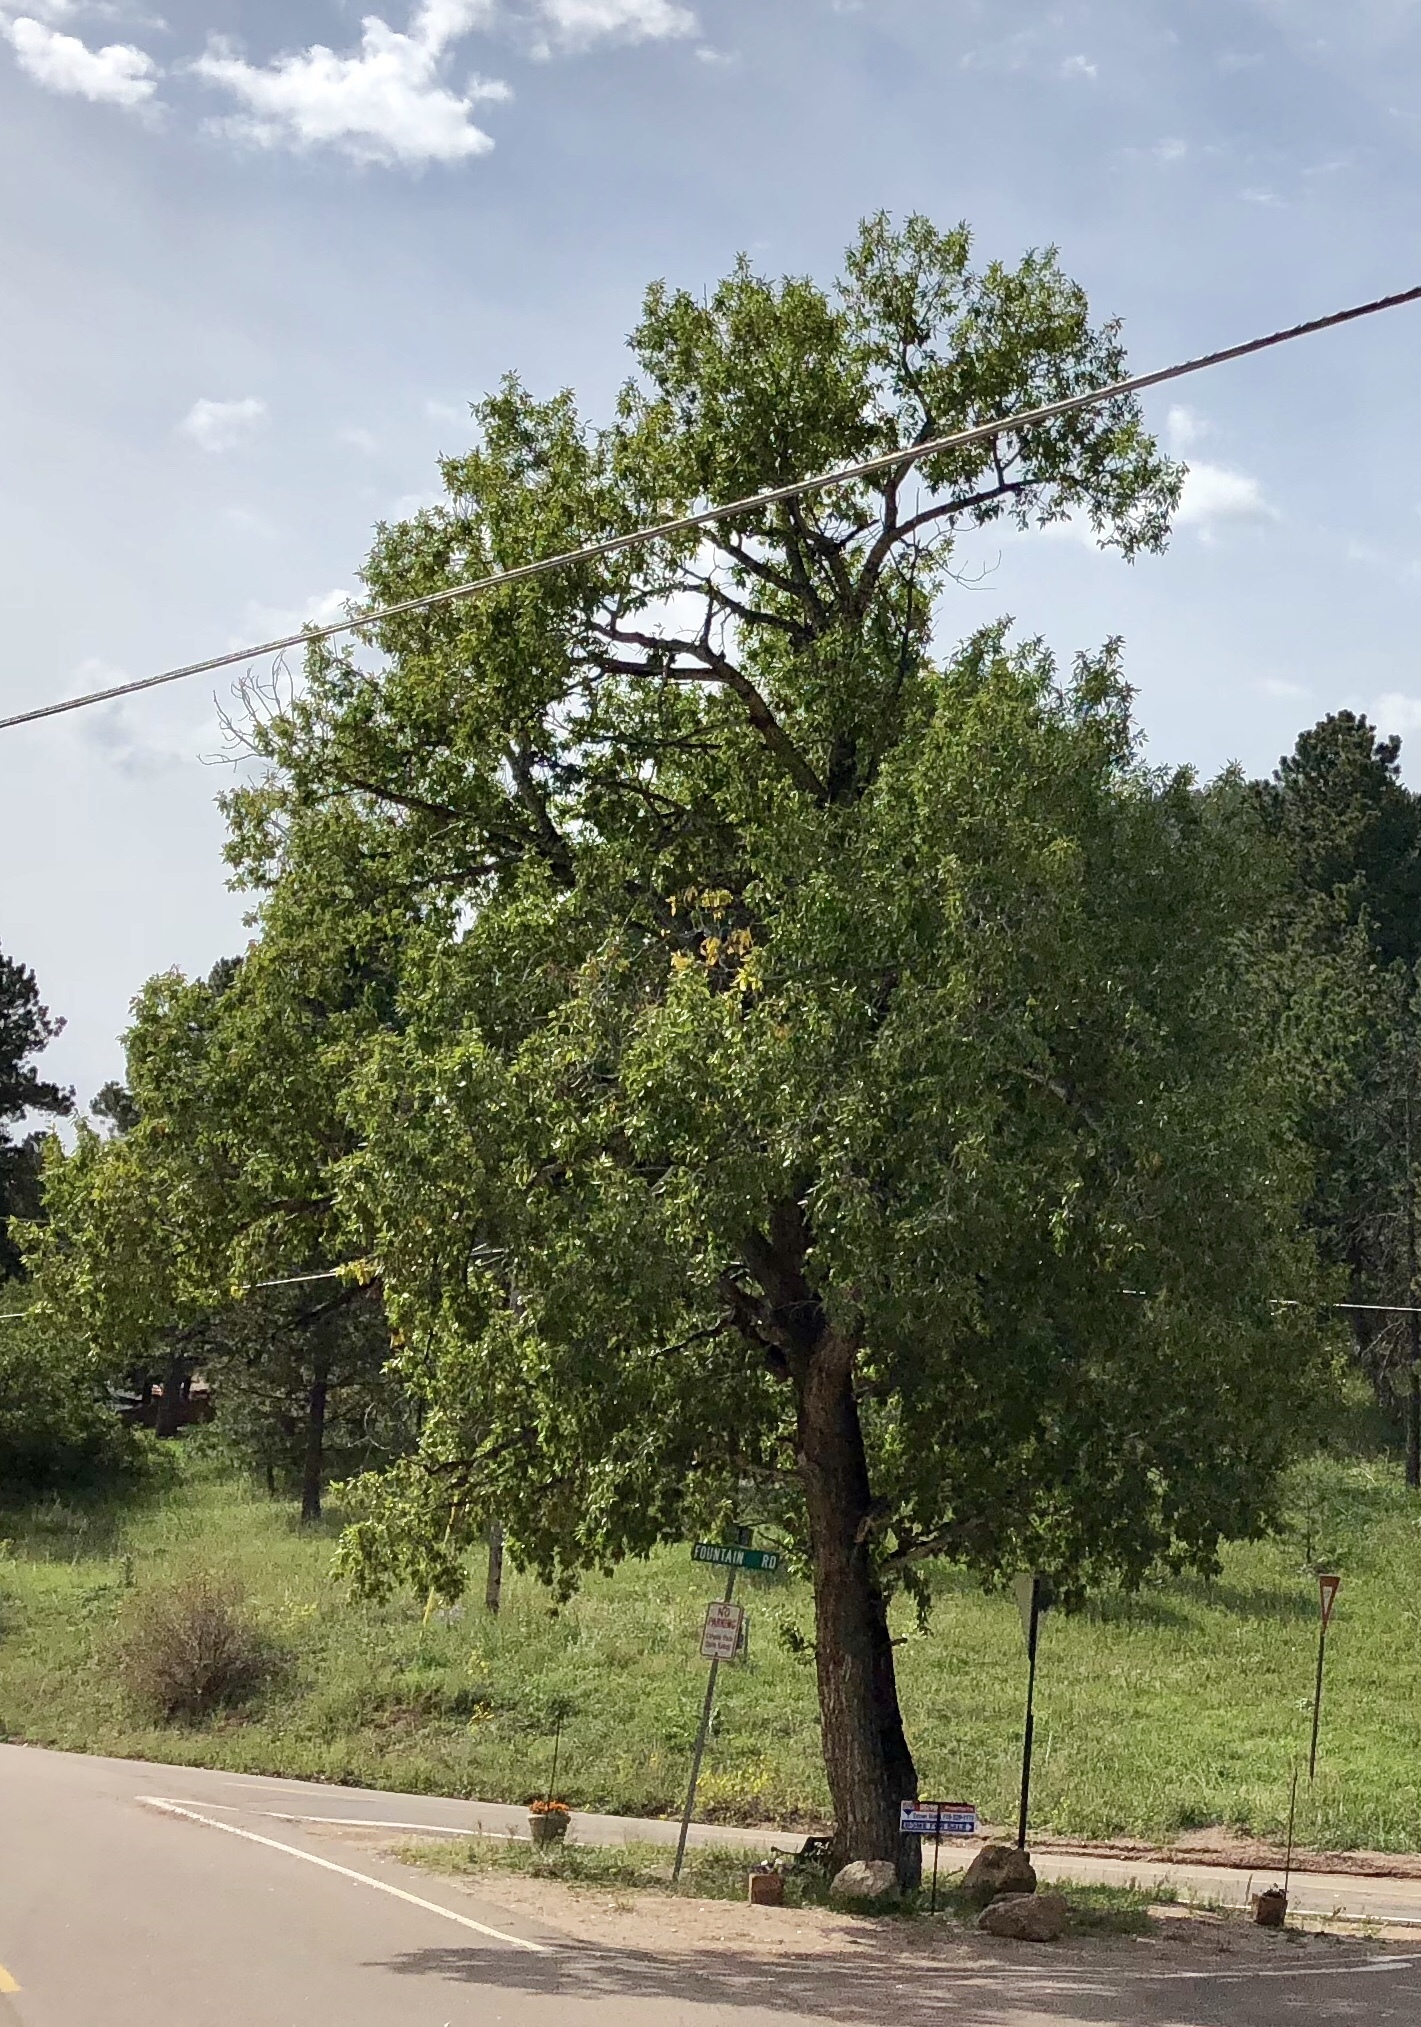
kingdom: Plantae
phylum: Tracheophyta
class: Magnoliopsida
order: Malpighiales
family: Salicaceae
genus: Populus
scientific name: Populus angustifolia
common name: Willow cottonwood
